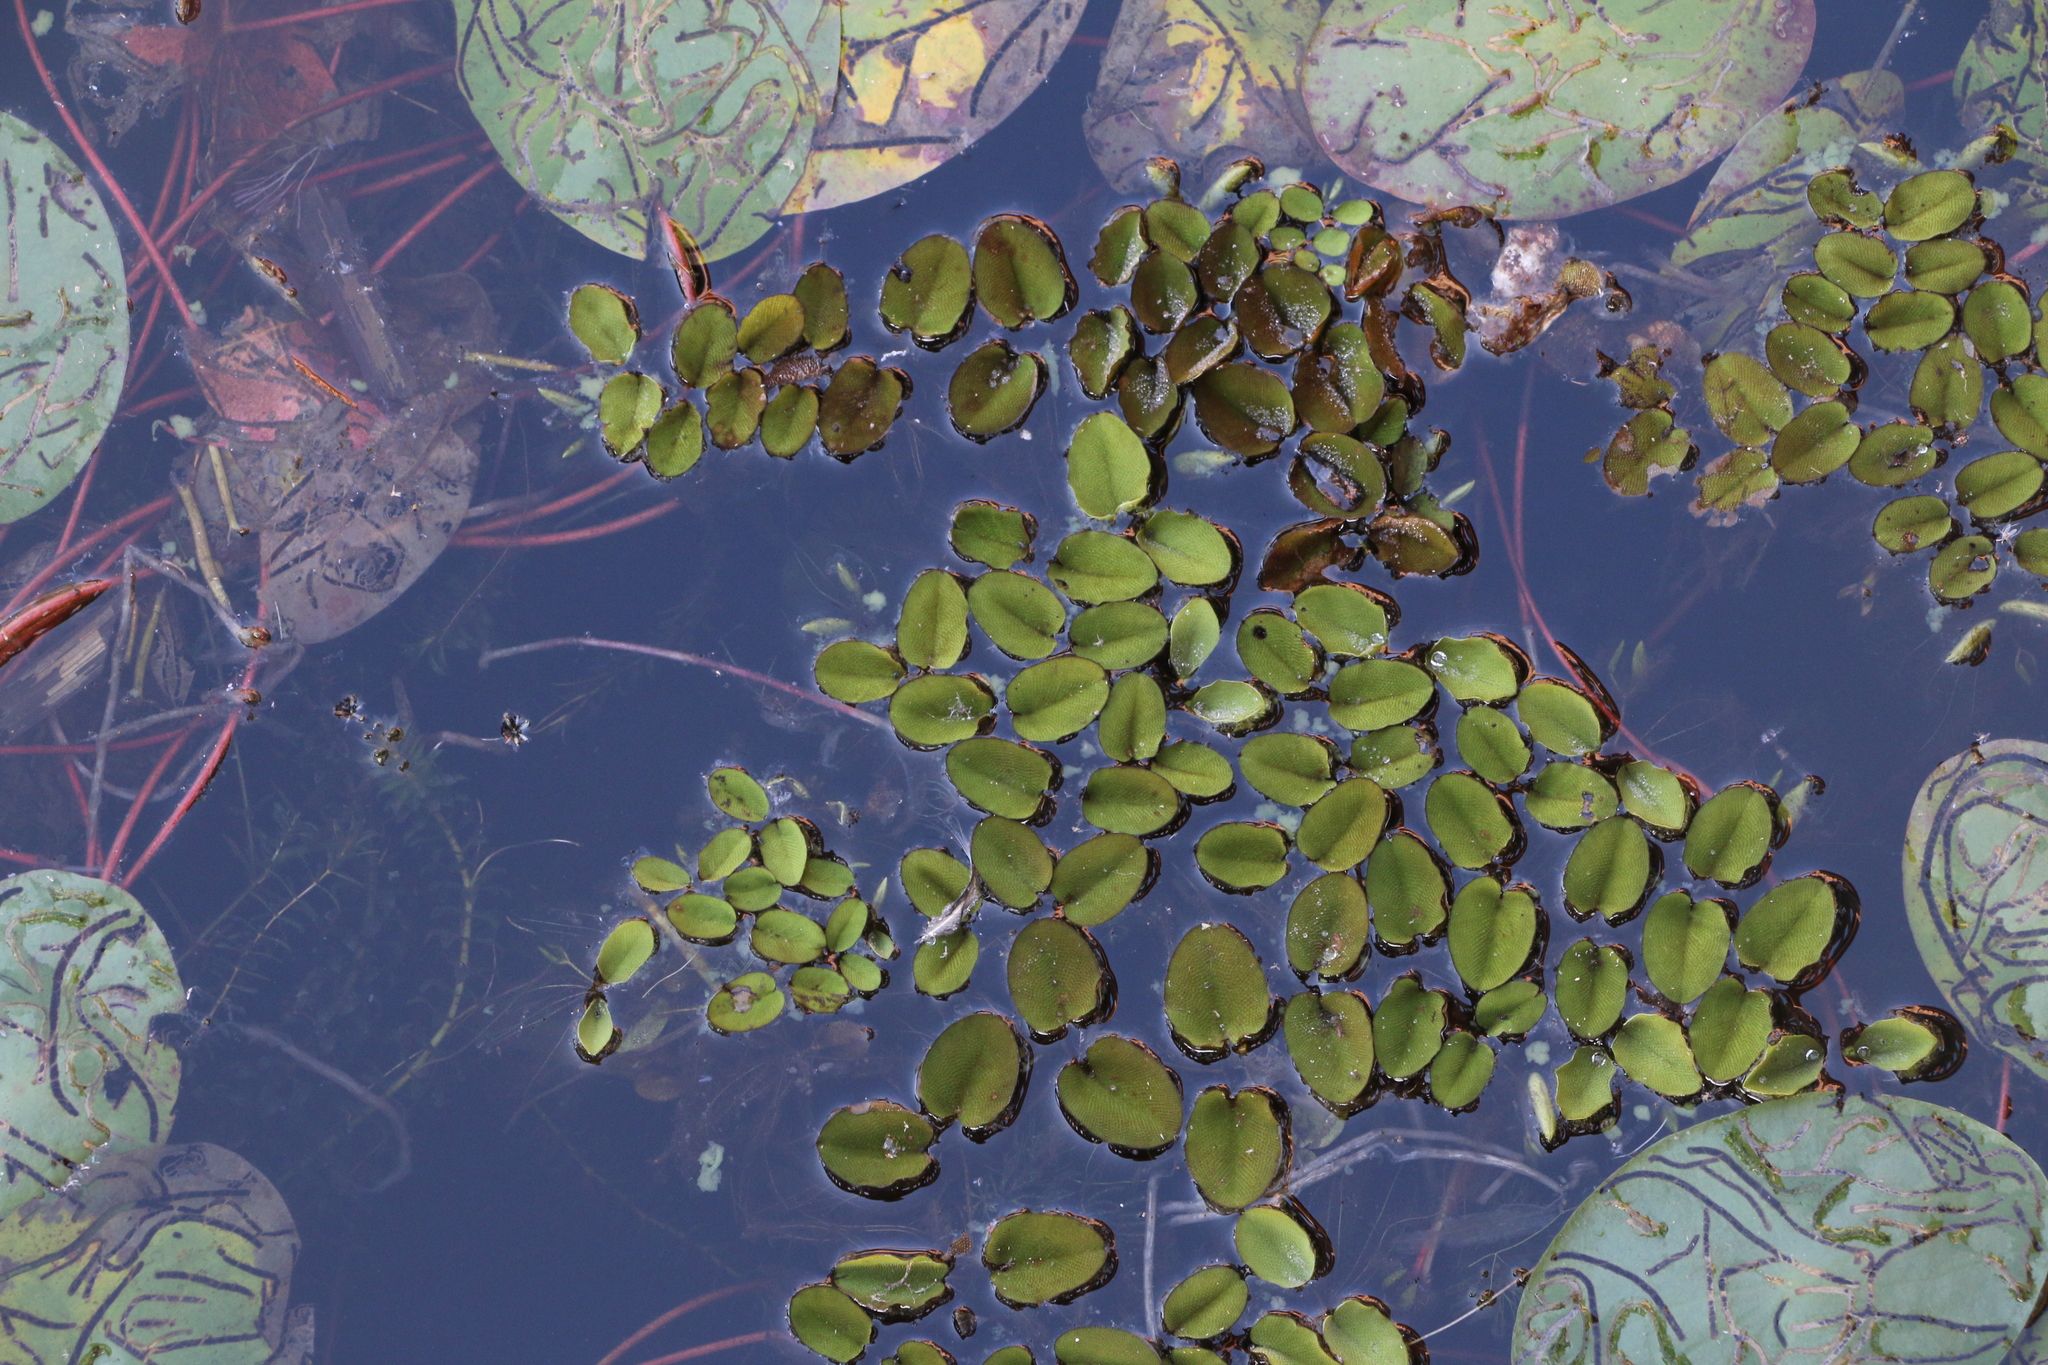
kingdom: Plantae
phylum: Tracheophyta
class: Polypodiopsida
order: Salviniales
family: Salviniaceae
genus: Salvinia
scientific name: Salvinia molesta
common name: Kariba weed
